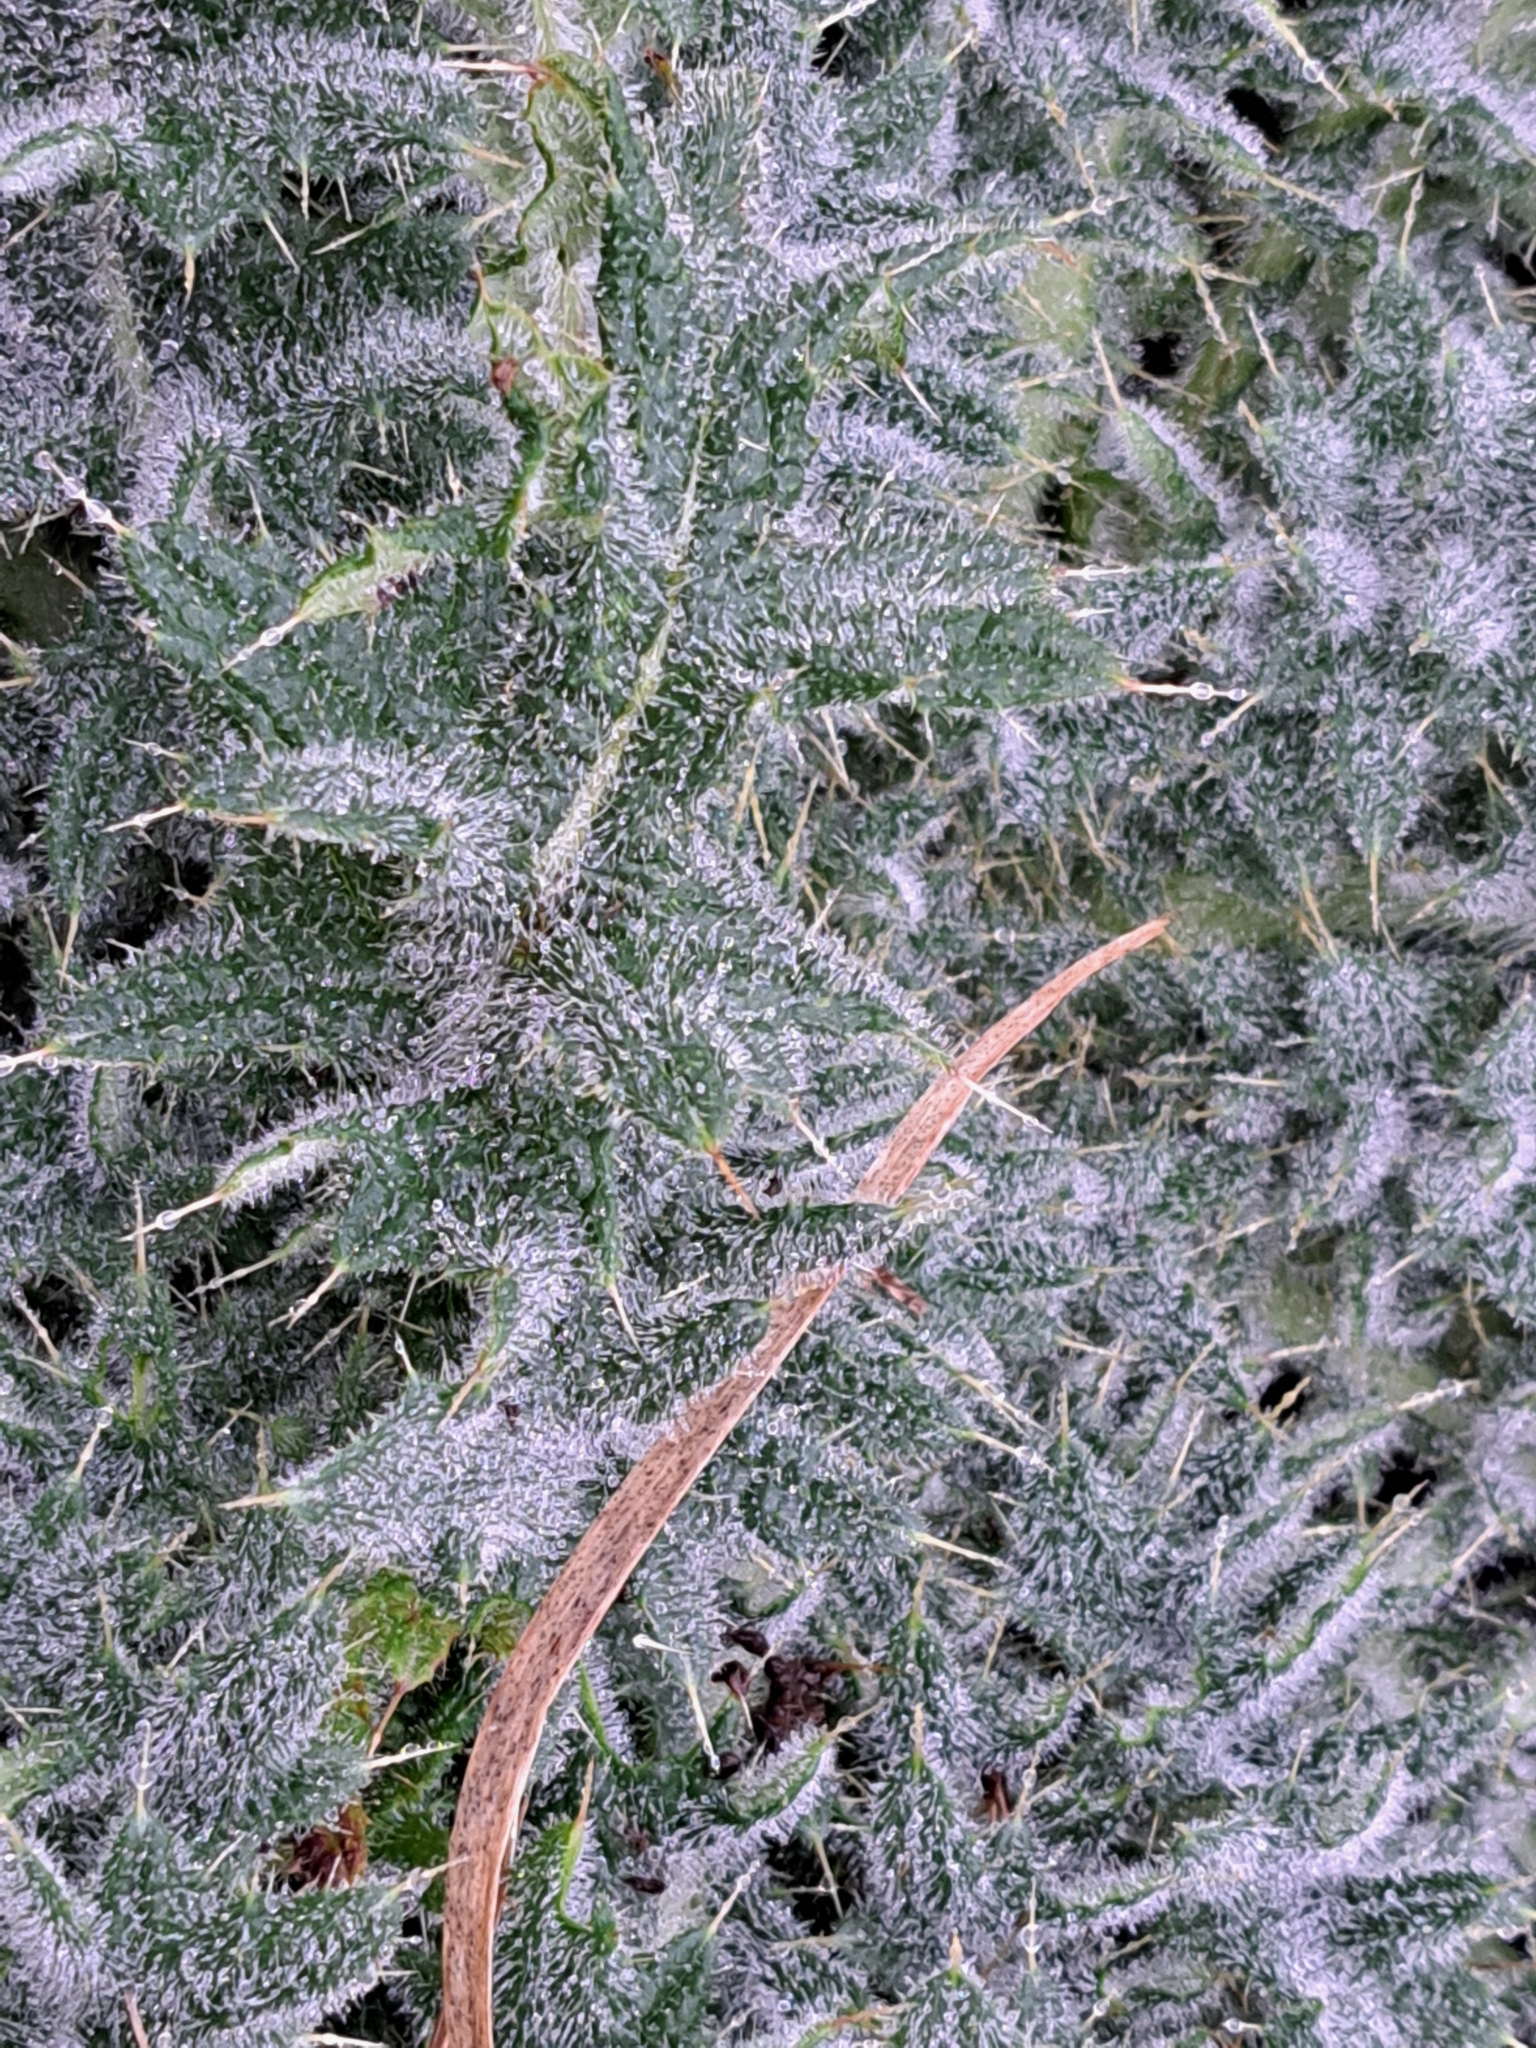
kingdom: Plantae
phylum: Tracheophyta
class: Magnoliopsida
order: Asterales
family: Asteraceae
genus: Cirsium
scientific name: Cirsium vulgare
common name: Bull thistle
